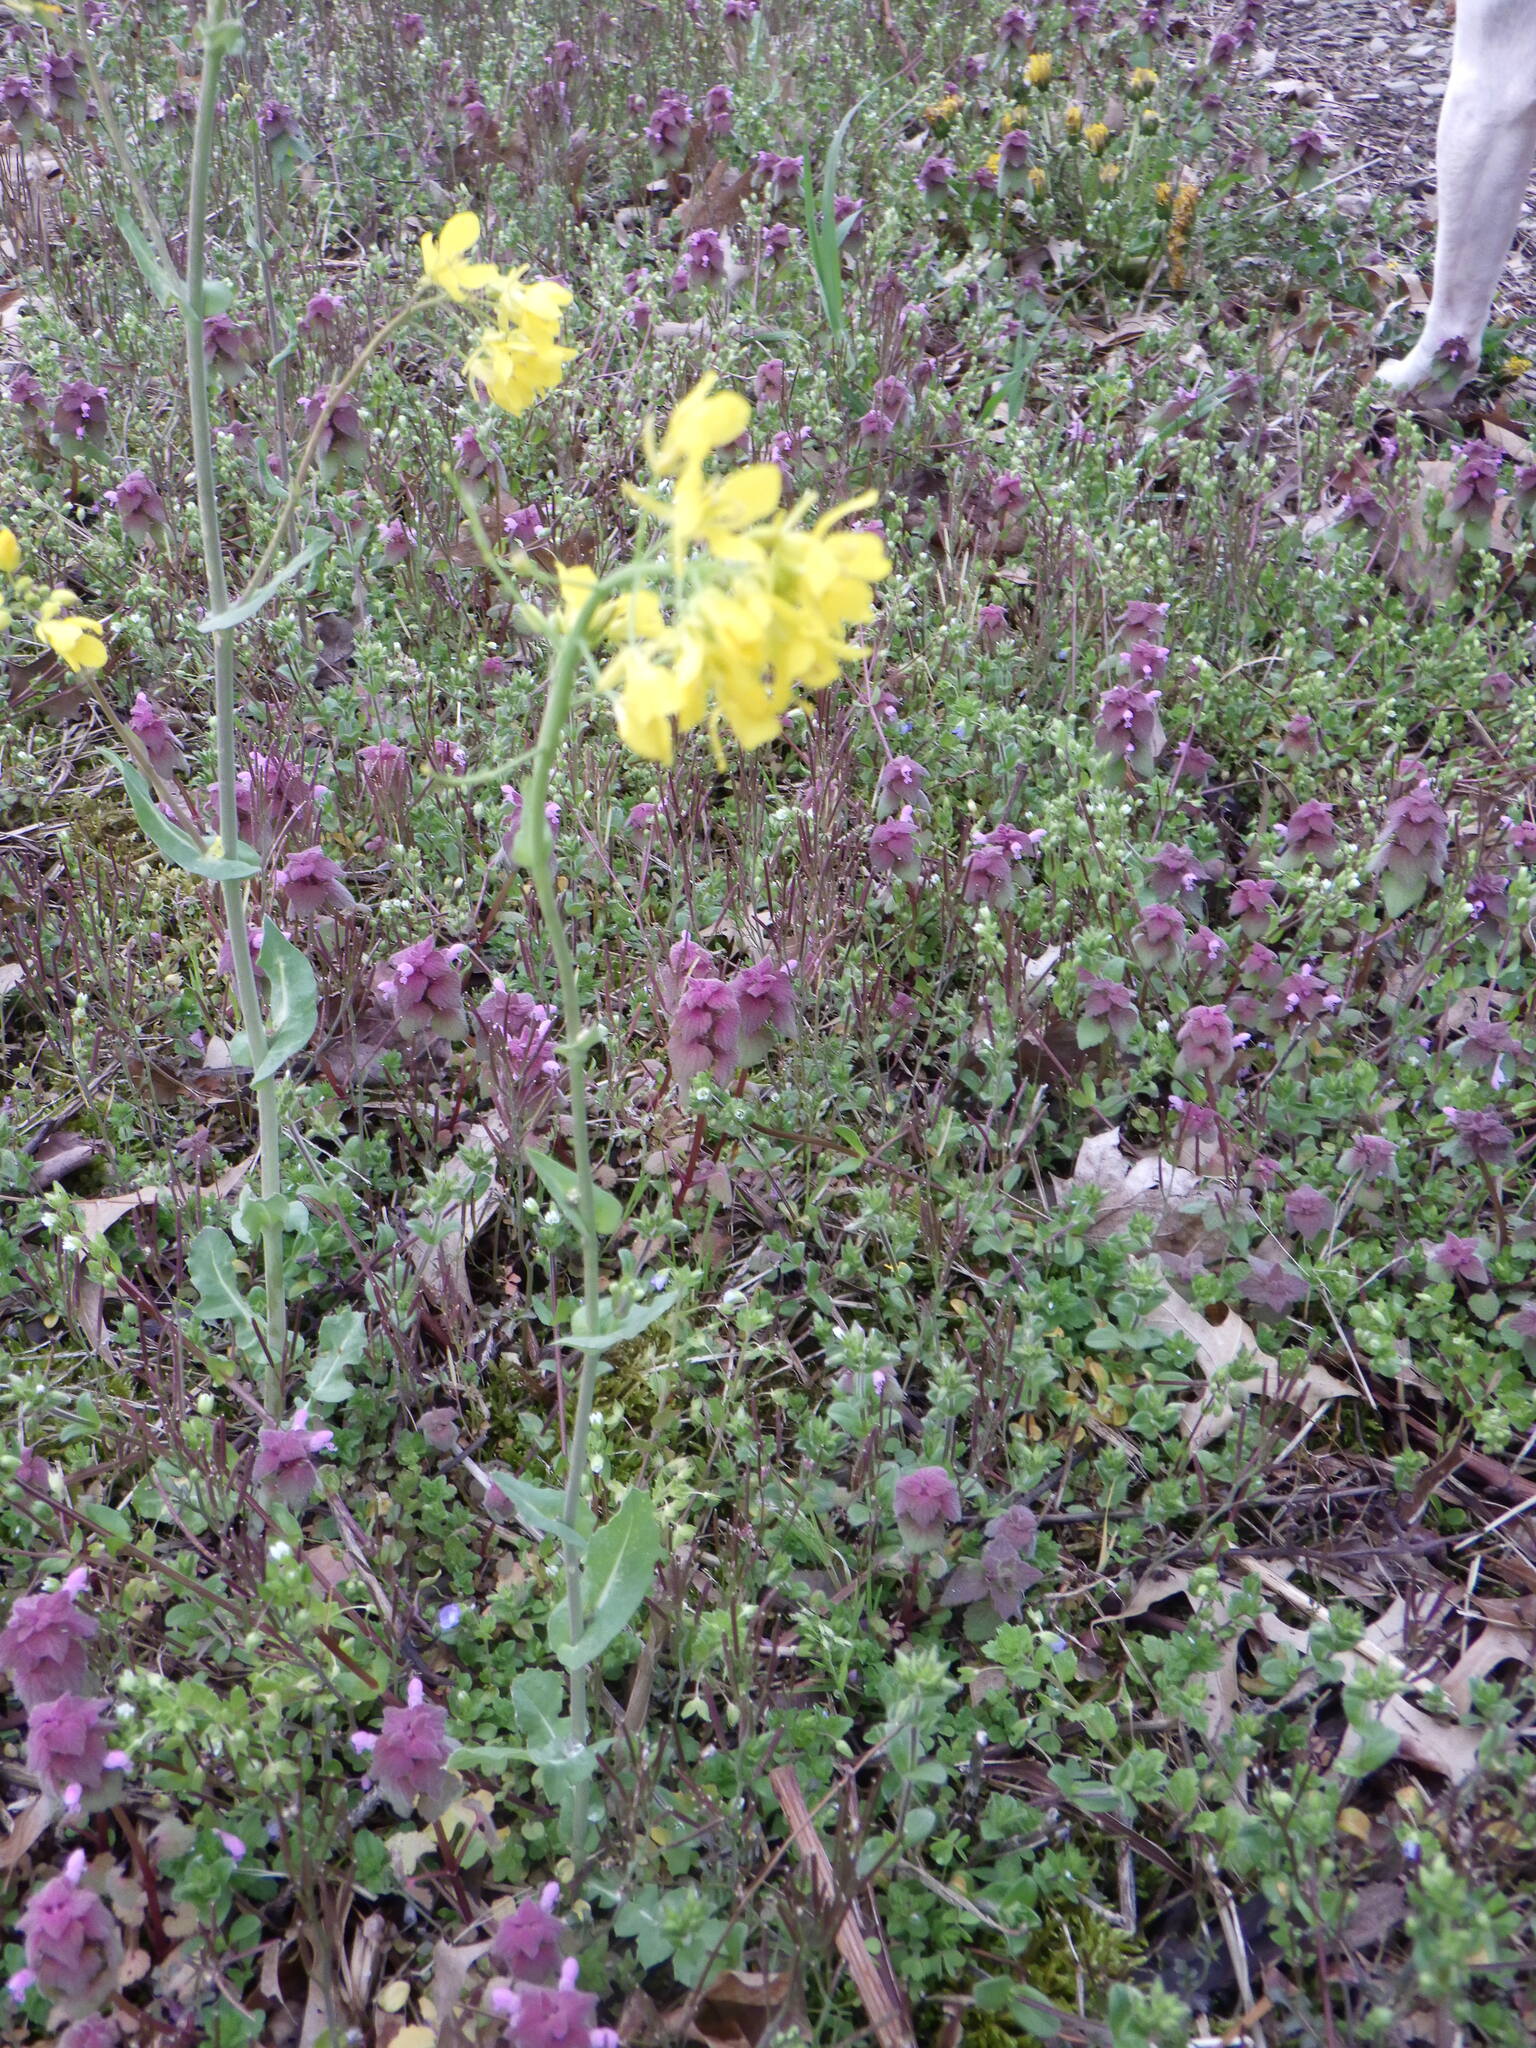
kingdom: Plantae
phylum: Tracheophyta
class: Magnoliopsida
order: Brassicales
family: Brassicaceae
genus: Brassica
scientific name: Brassica rapa
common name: Field mustard
